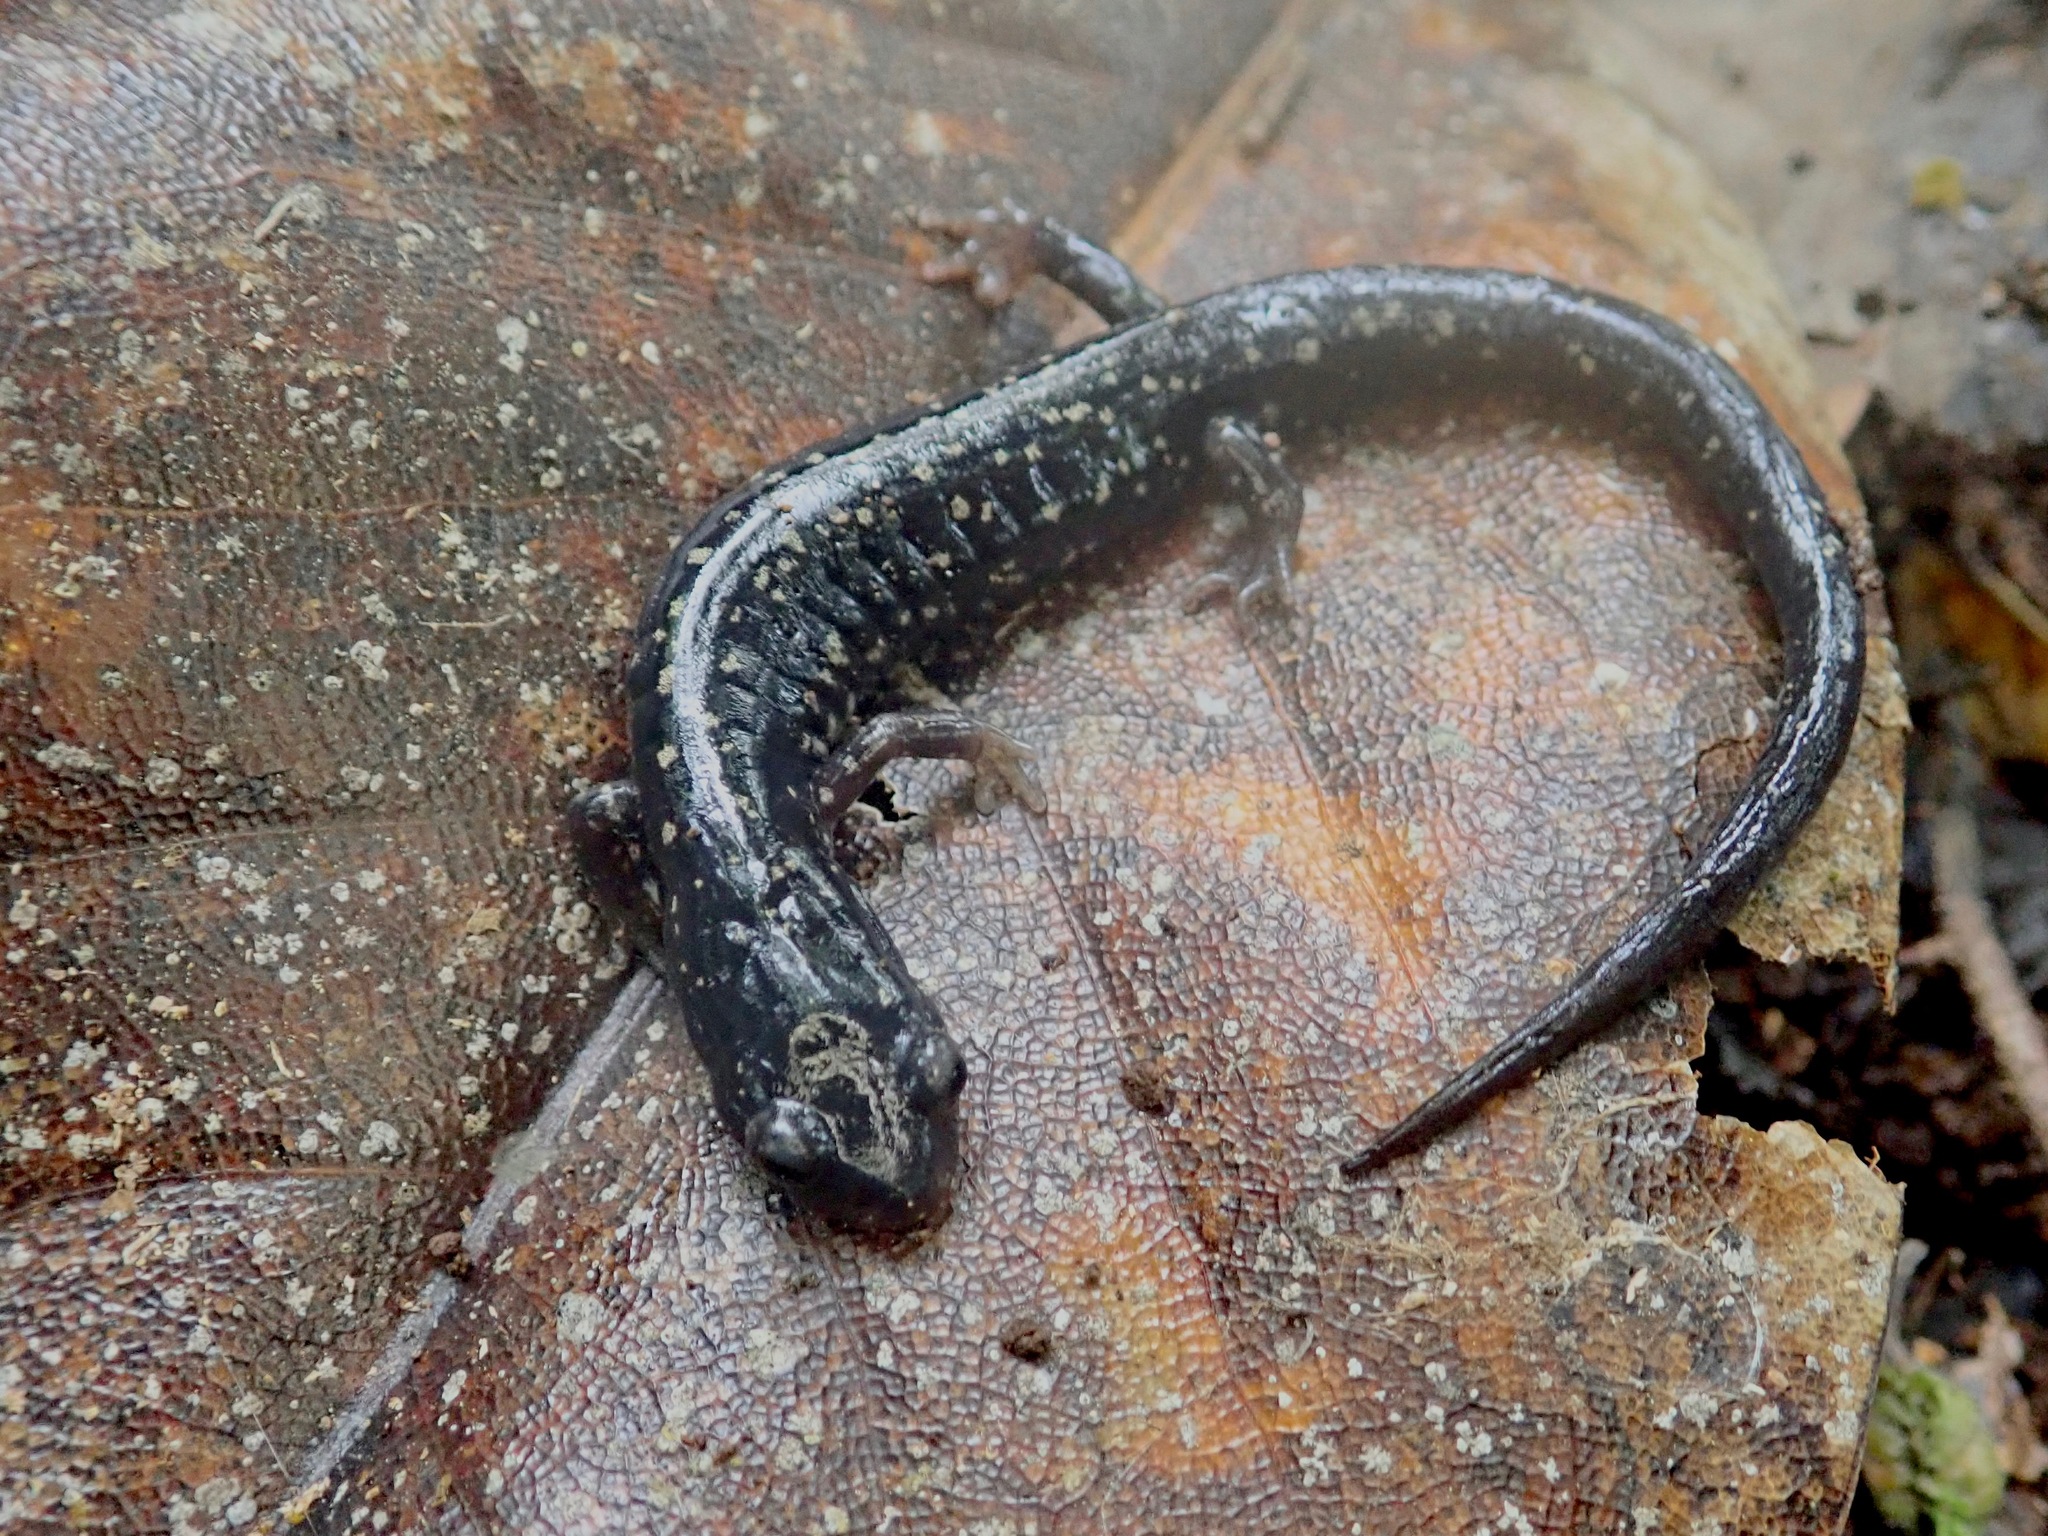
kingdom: Animalia
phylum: Chordata
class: Amphibia
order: Caudata
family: Plethodontidae
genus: Plethodon
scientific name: Plethodon mississippi
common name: Mississippi slimy salamander
